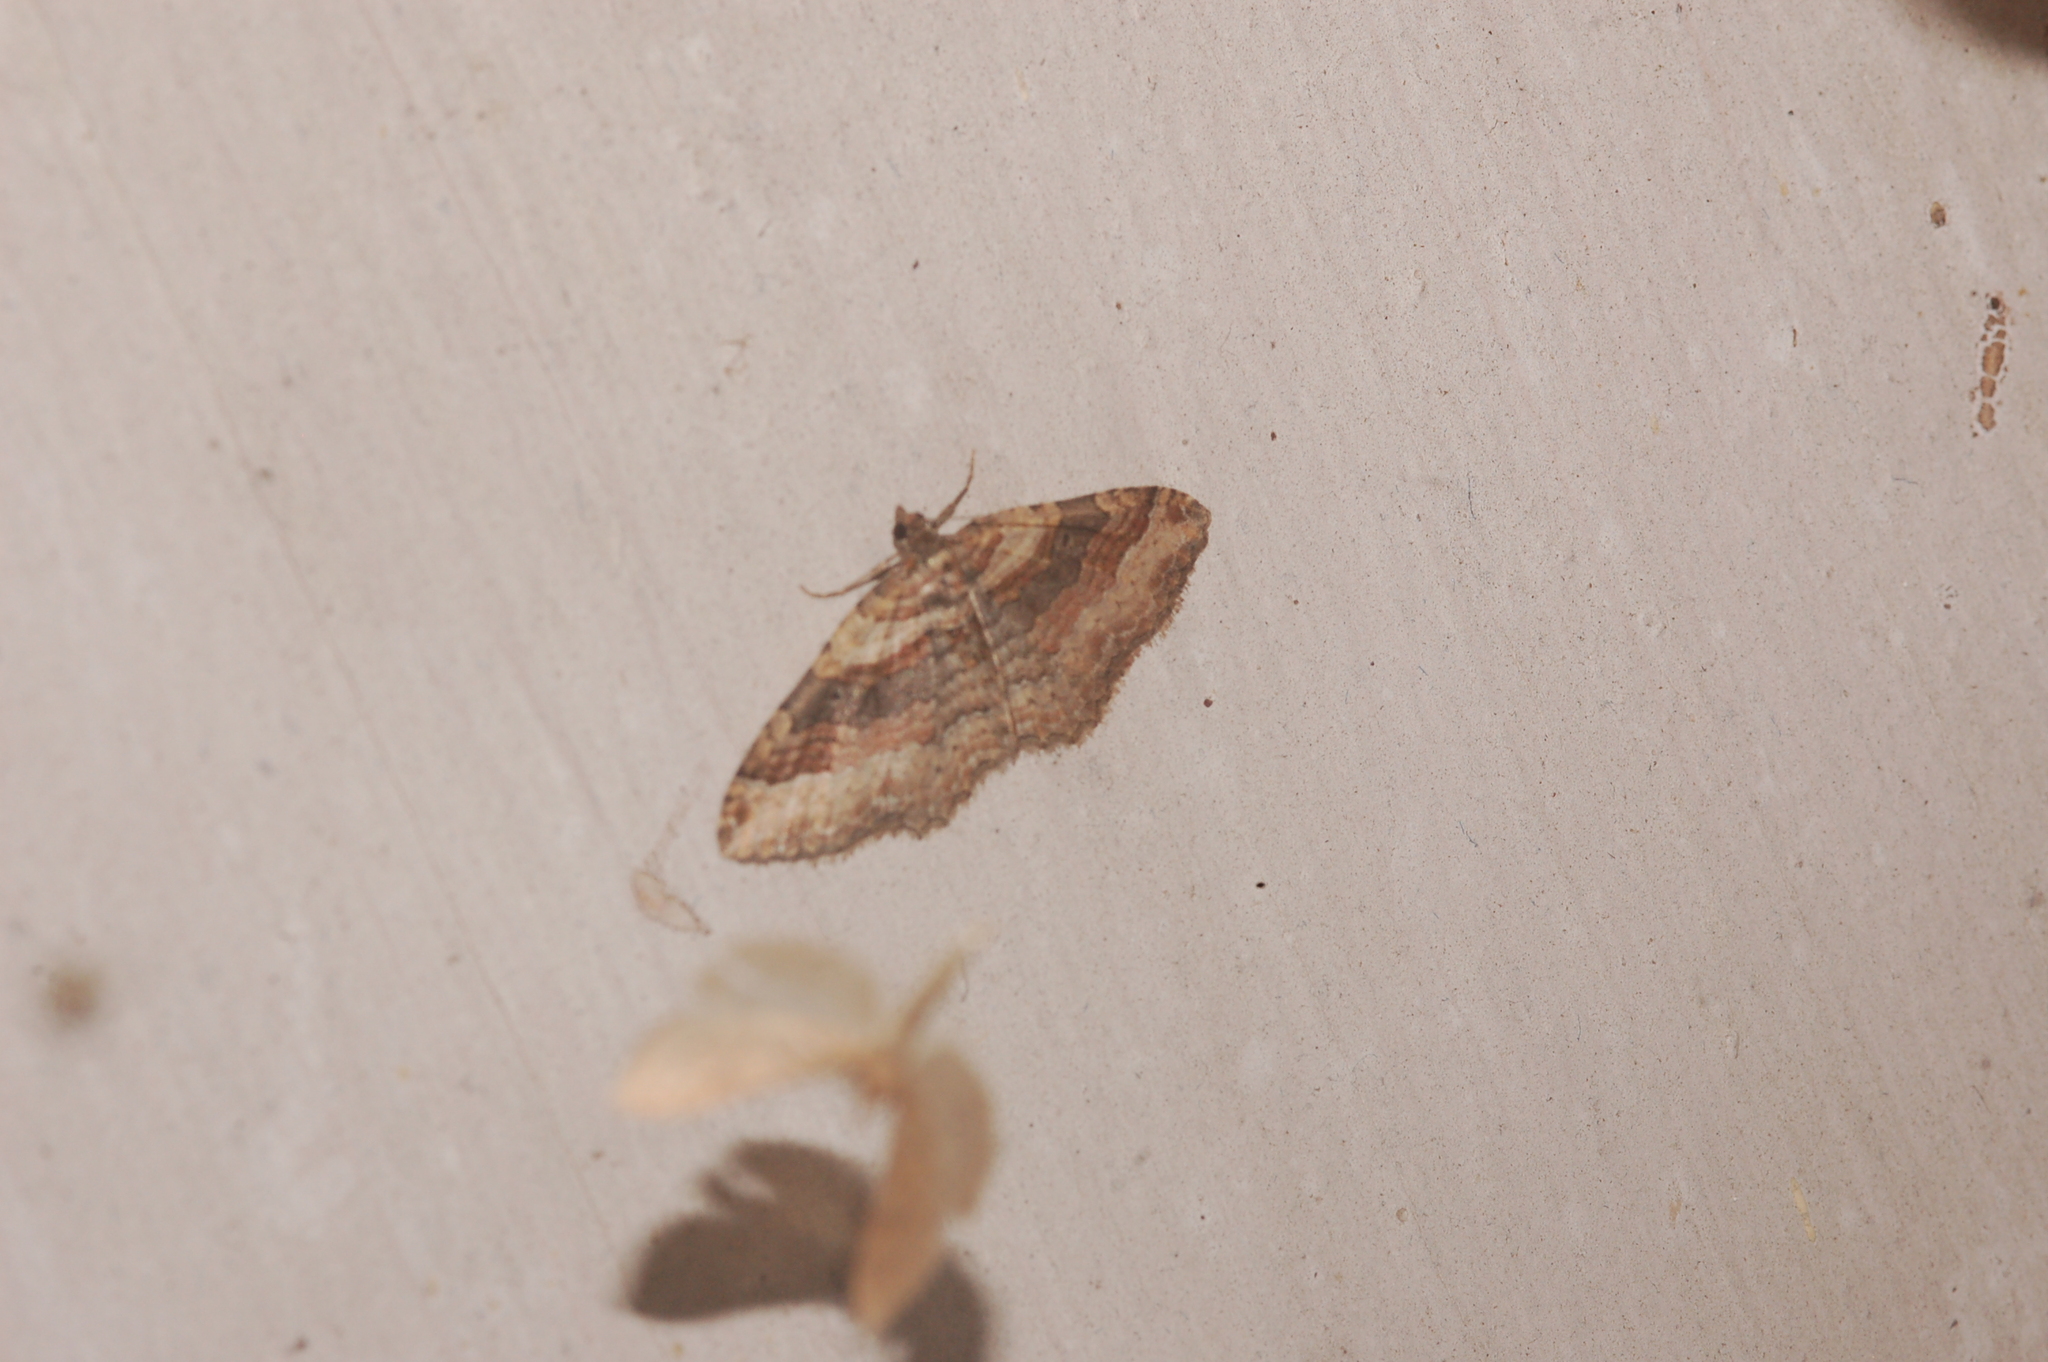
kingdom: Animalia
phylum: Arthropoda
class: Insecta
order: Lepidoptera
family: Geometridae
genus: Costaconvexa
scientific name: Costaconvexa centrostrigaria
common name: Bent-line carpet
